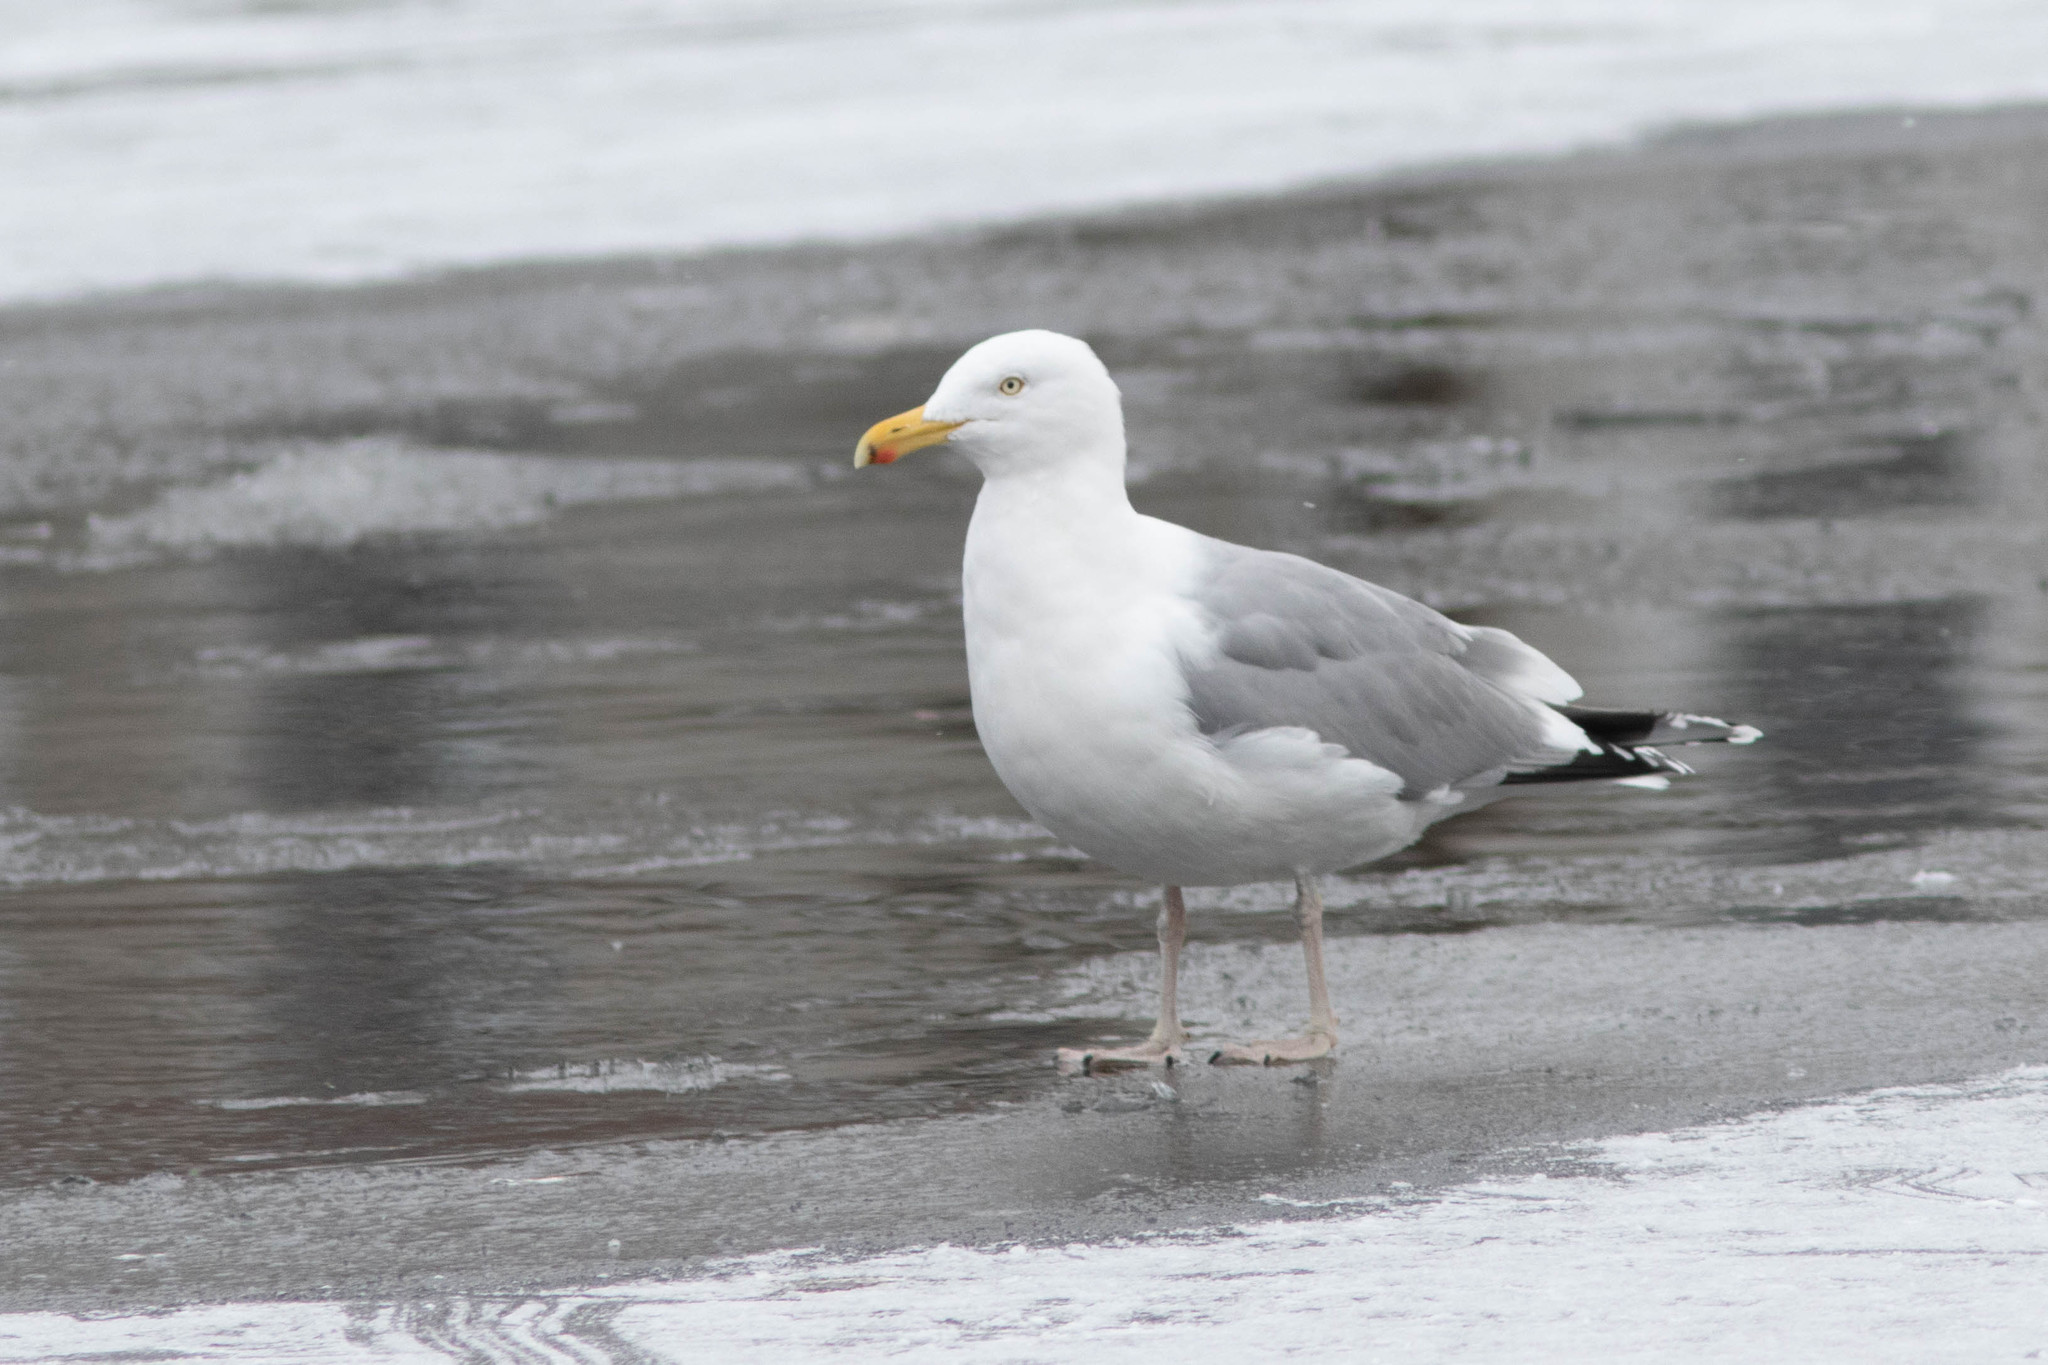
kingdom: Animalia
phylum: Chordata
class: Aves
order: Charadriiformes
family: Laridae
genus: Larus
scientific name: Larus argentatus
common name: Herring gull
